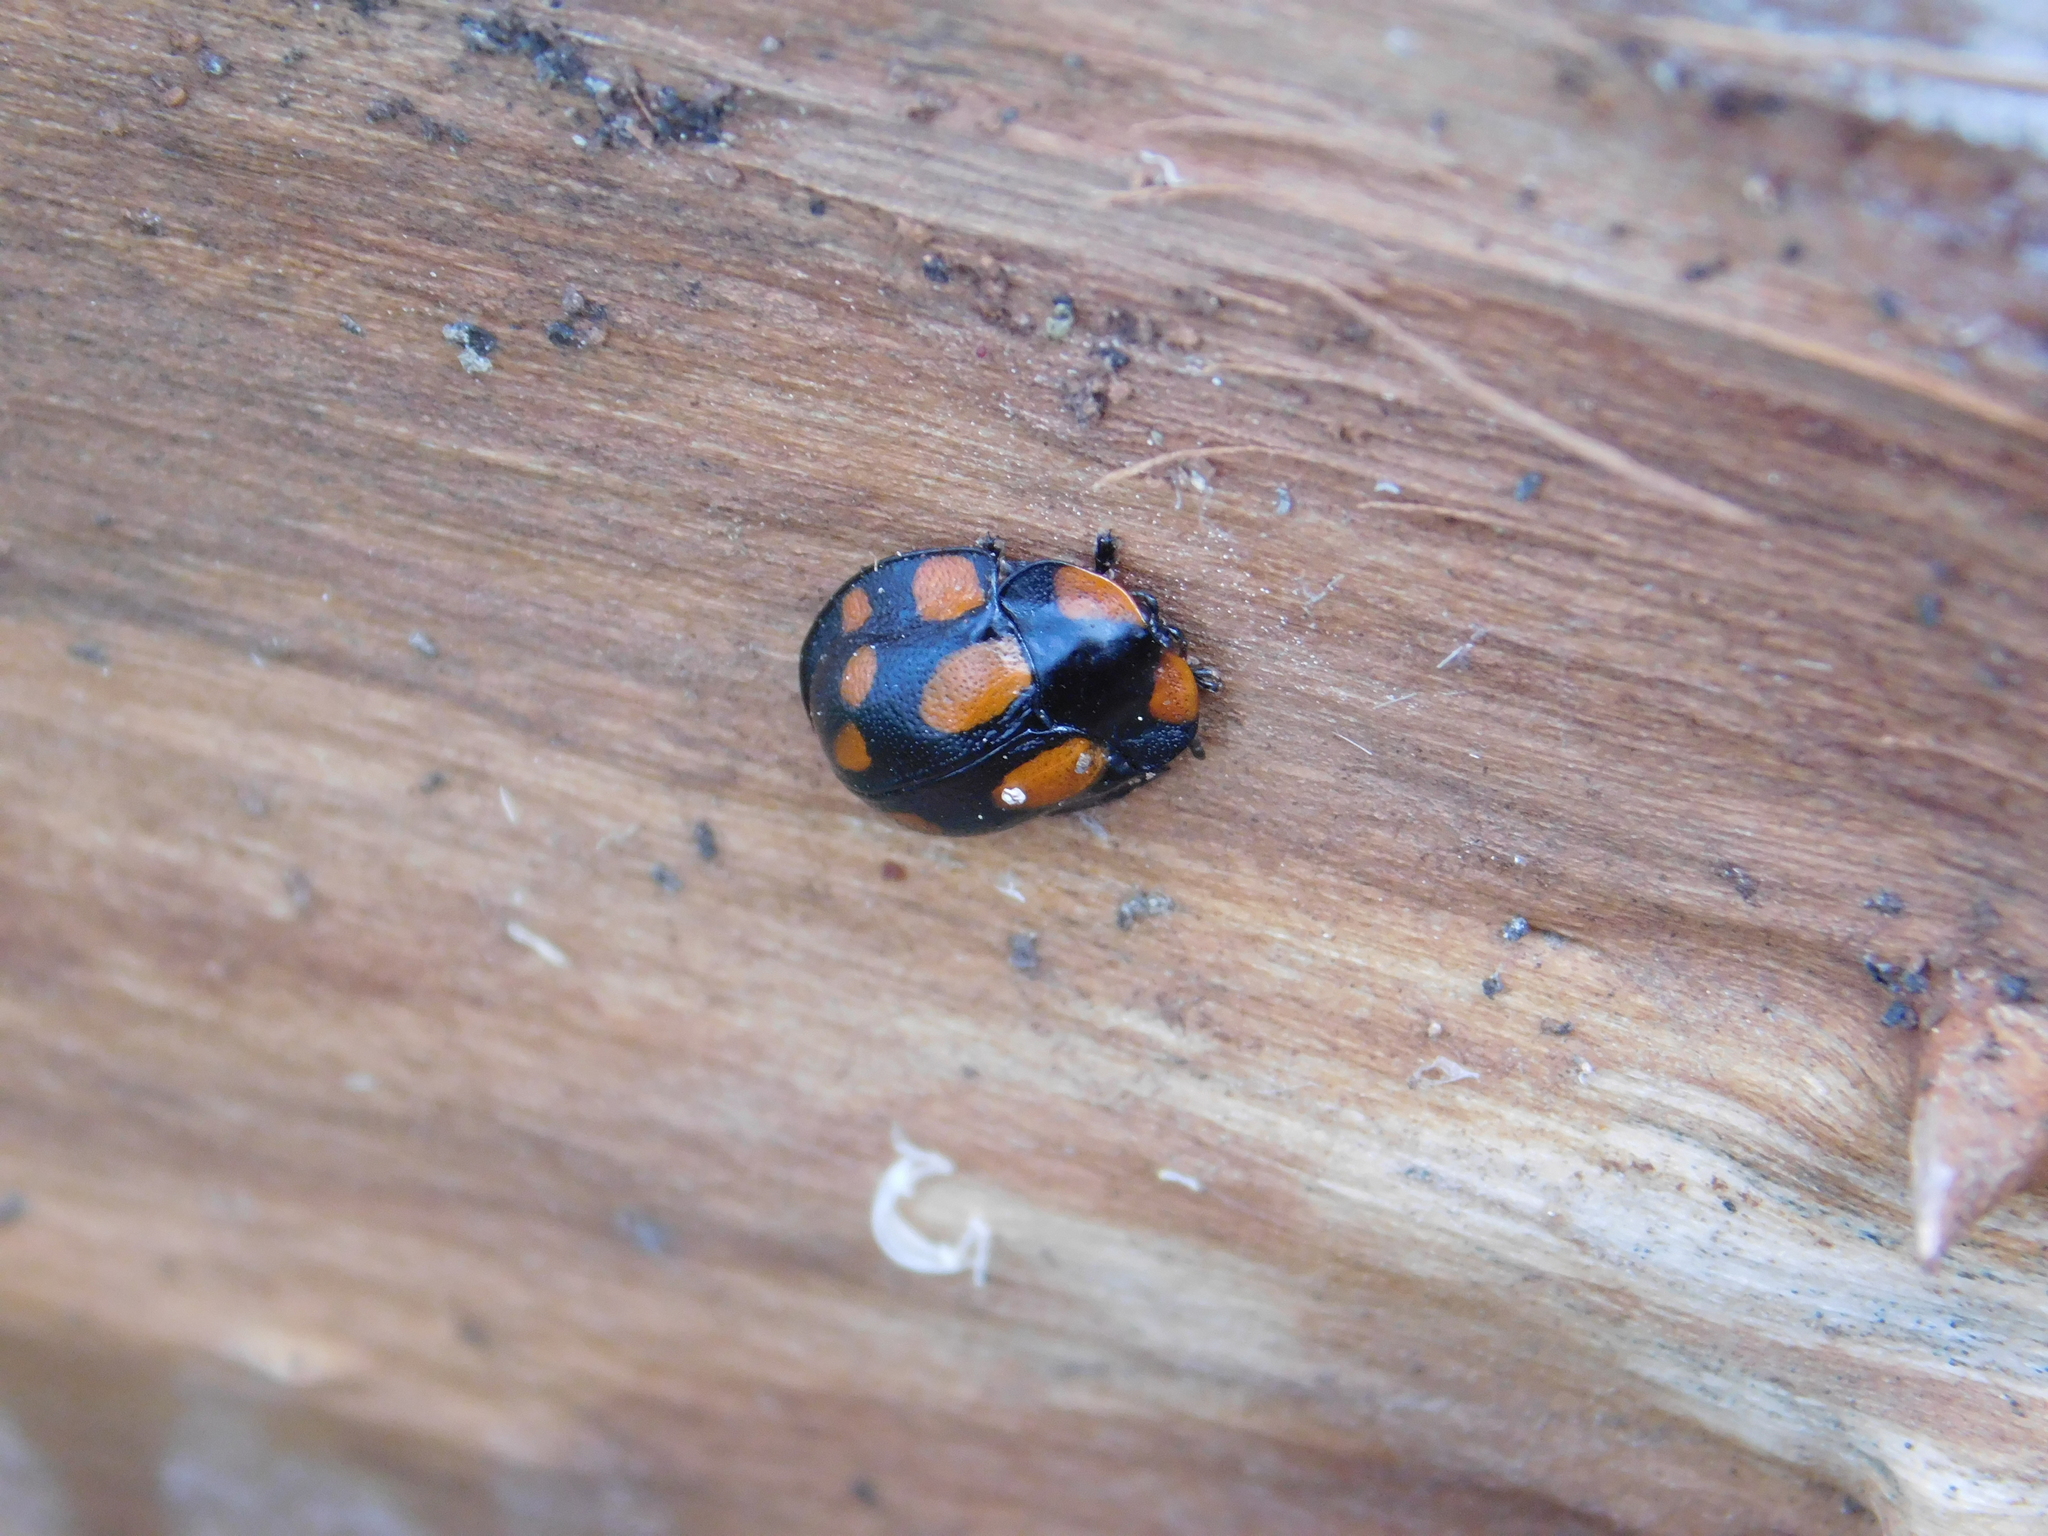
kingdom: Animalia
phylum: Arthropoda
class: Insecta
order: Coleoptera
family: Chrysomelidae
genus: Botanochara
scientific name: Botanochara duodecimverrucata
